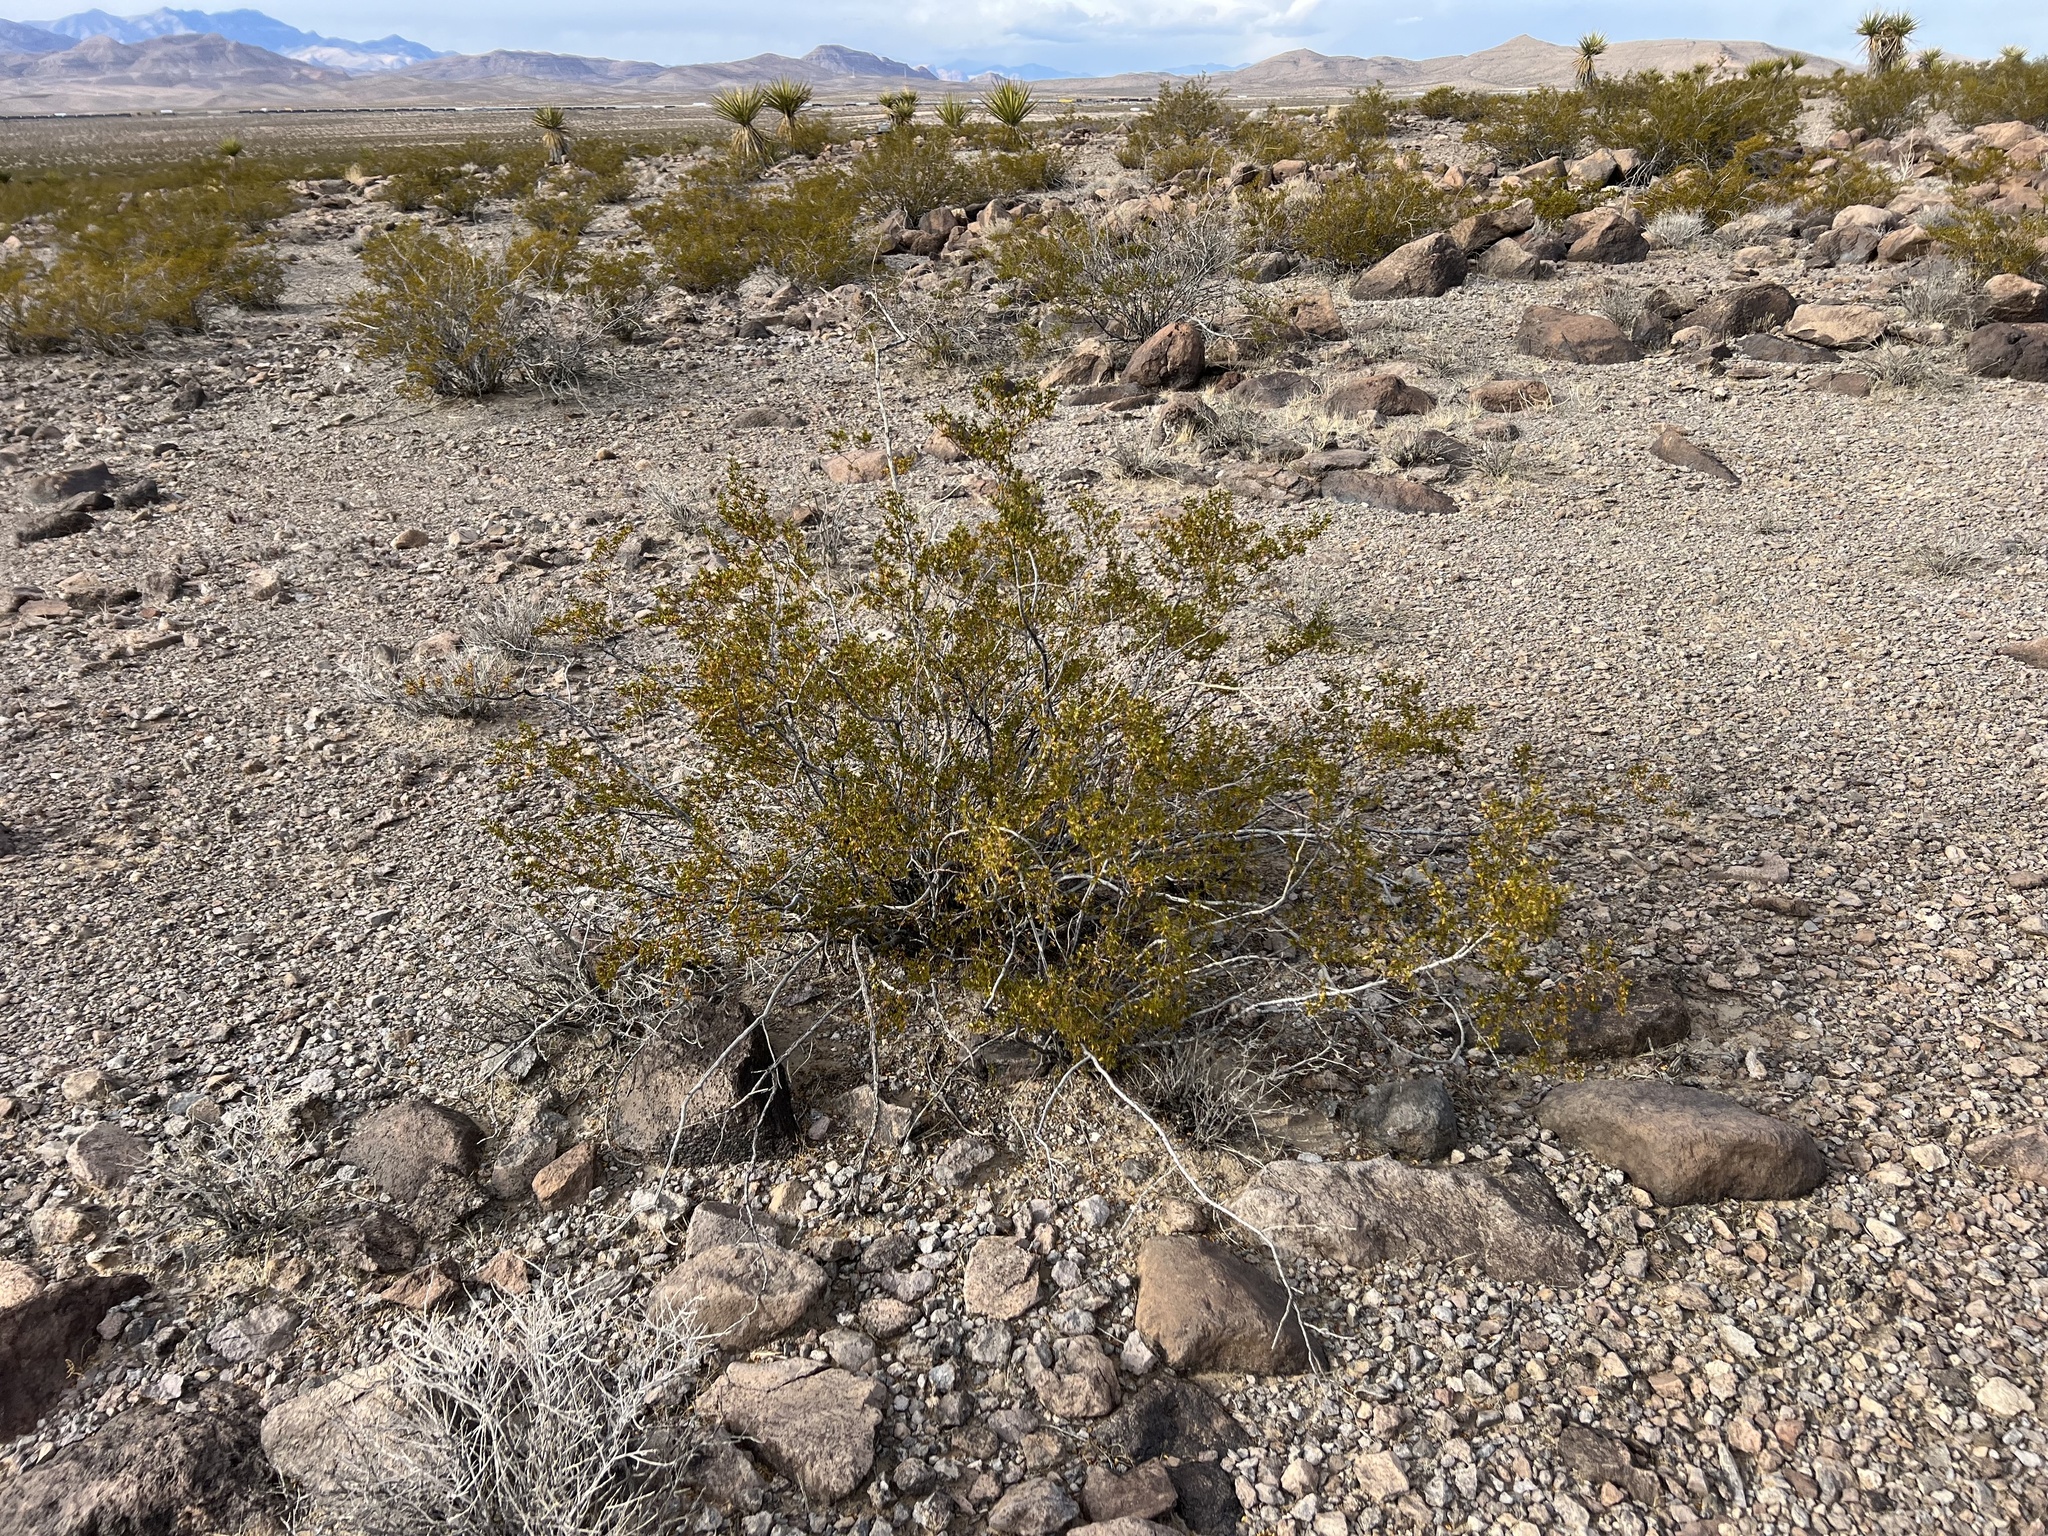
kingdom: Plantae
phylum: Tracheophyta
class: Magnoliopsida
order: Zygophyllales
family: Zygophyllaceae
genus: Larrea
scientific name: Larrea tridentata
